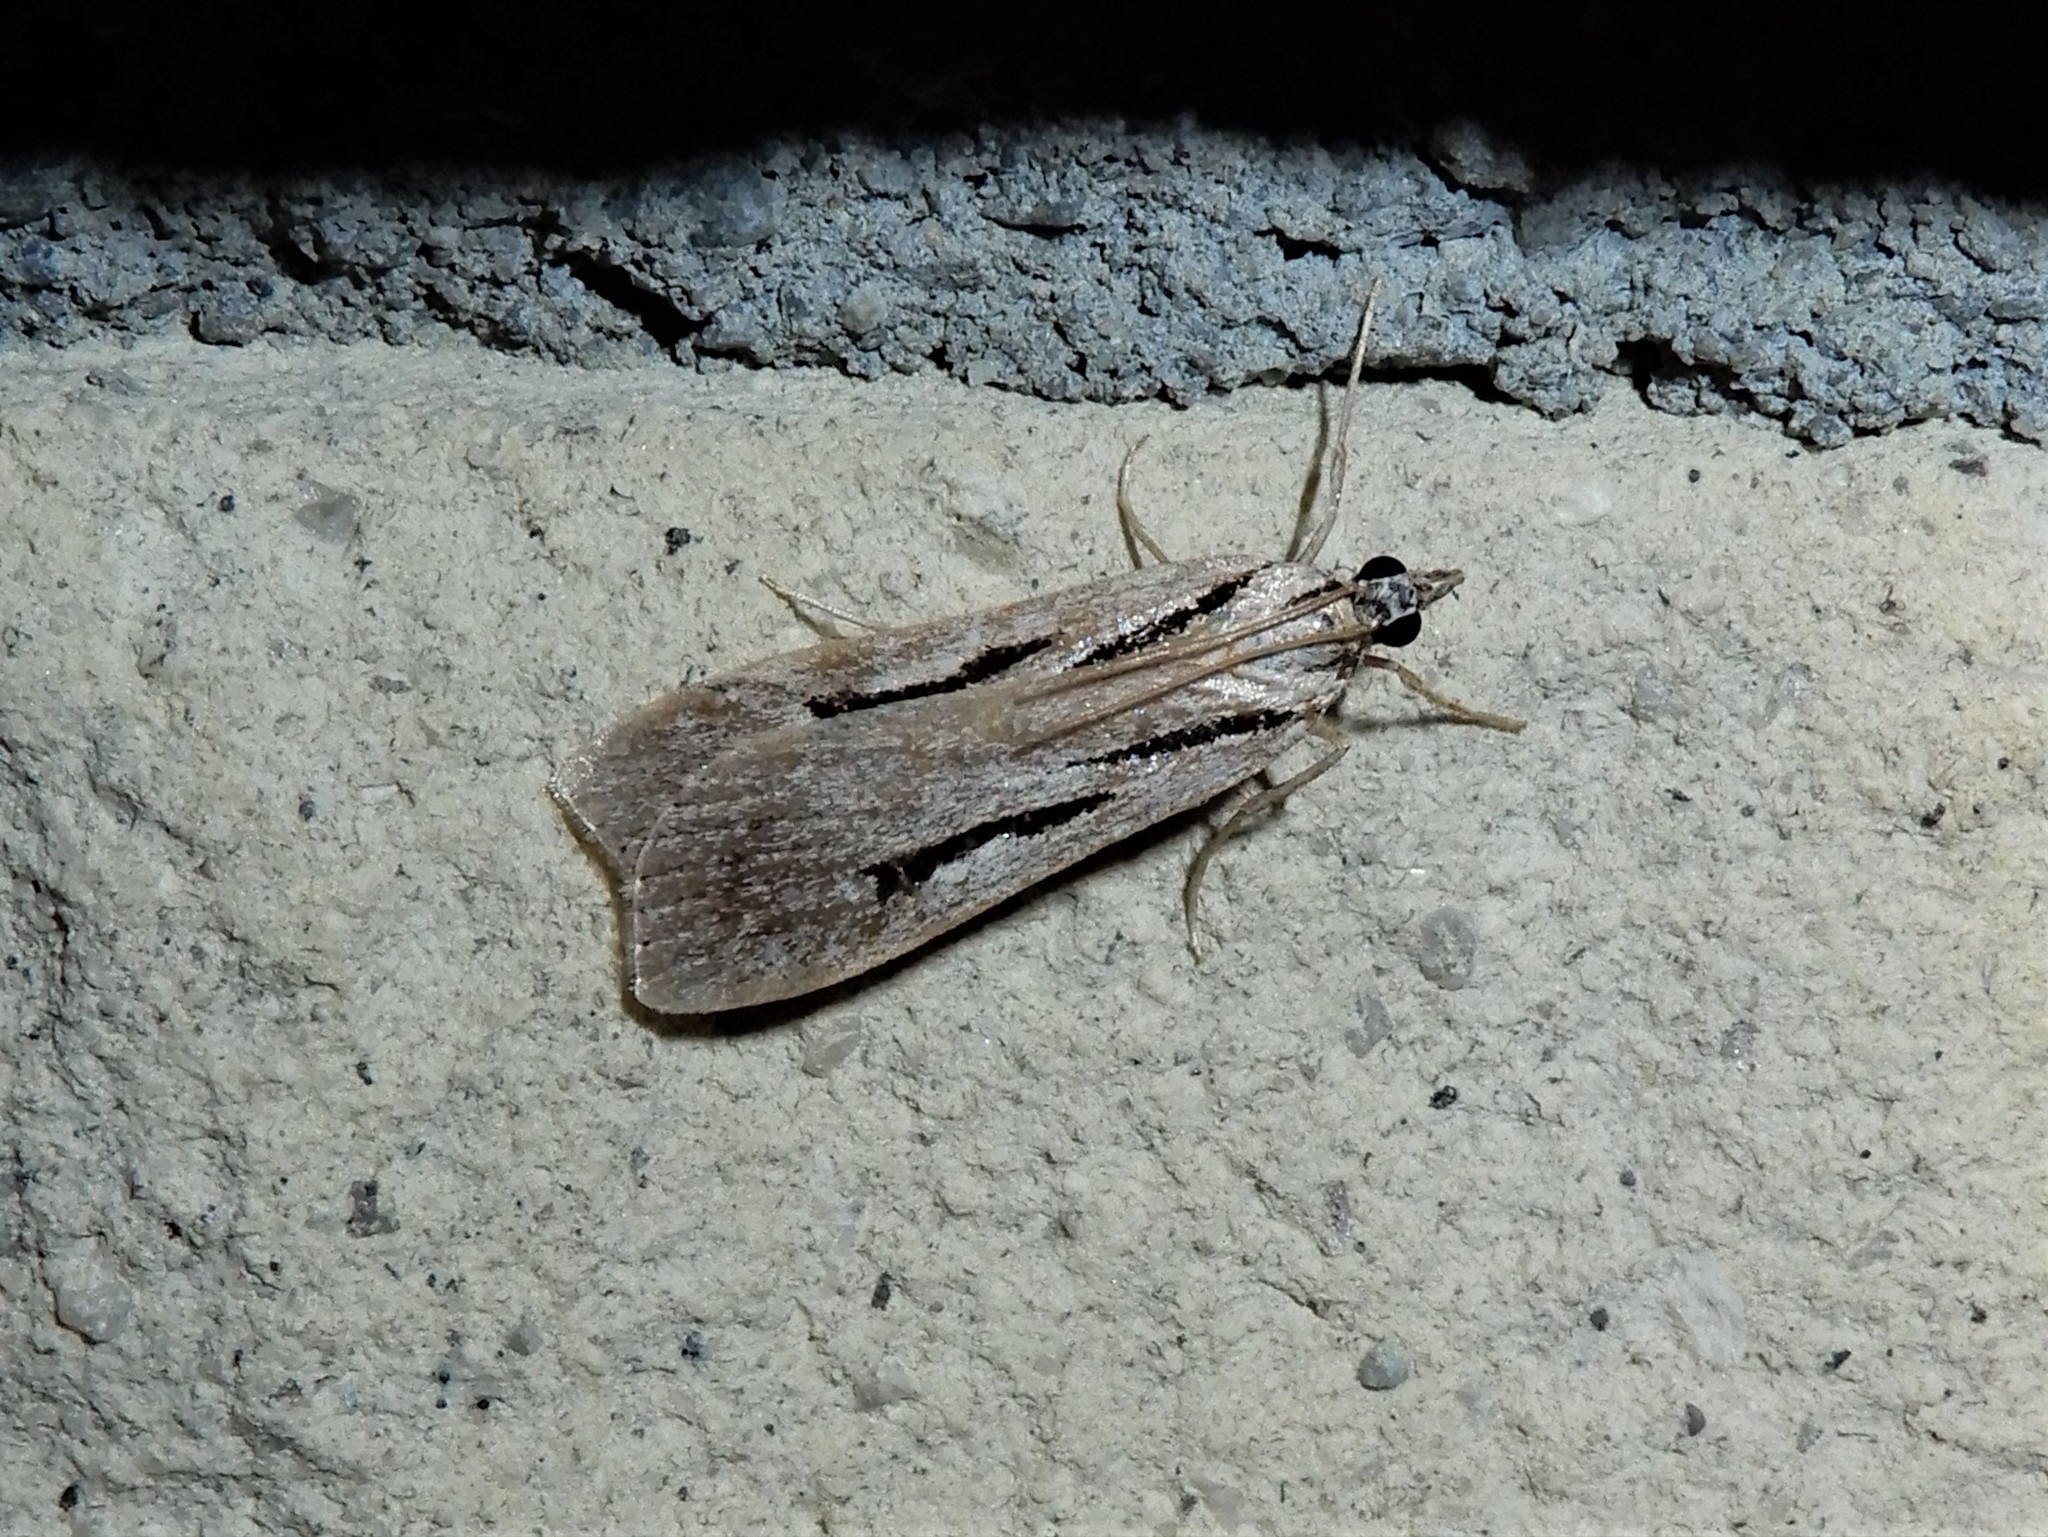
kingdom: Animalia
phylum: Arthropoda
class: Insecta
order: Lepidoptera
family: Crambidae
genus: Scoparia
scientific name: Scoparia rotuellus
